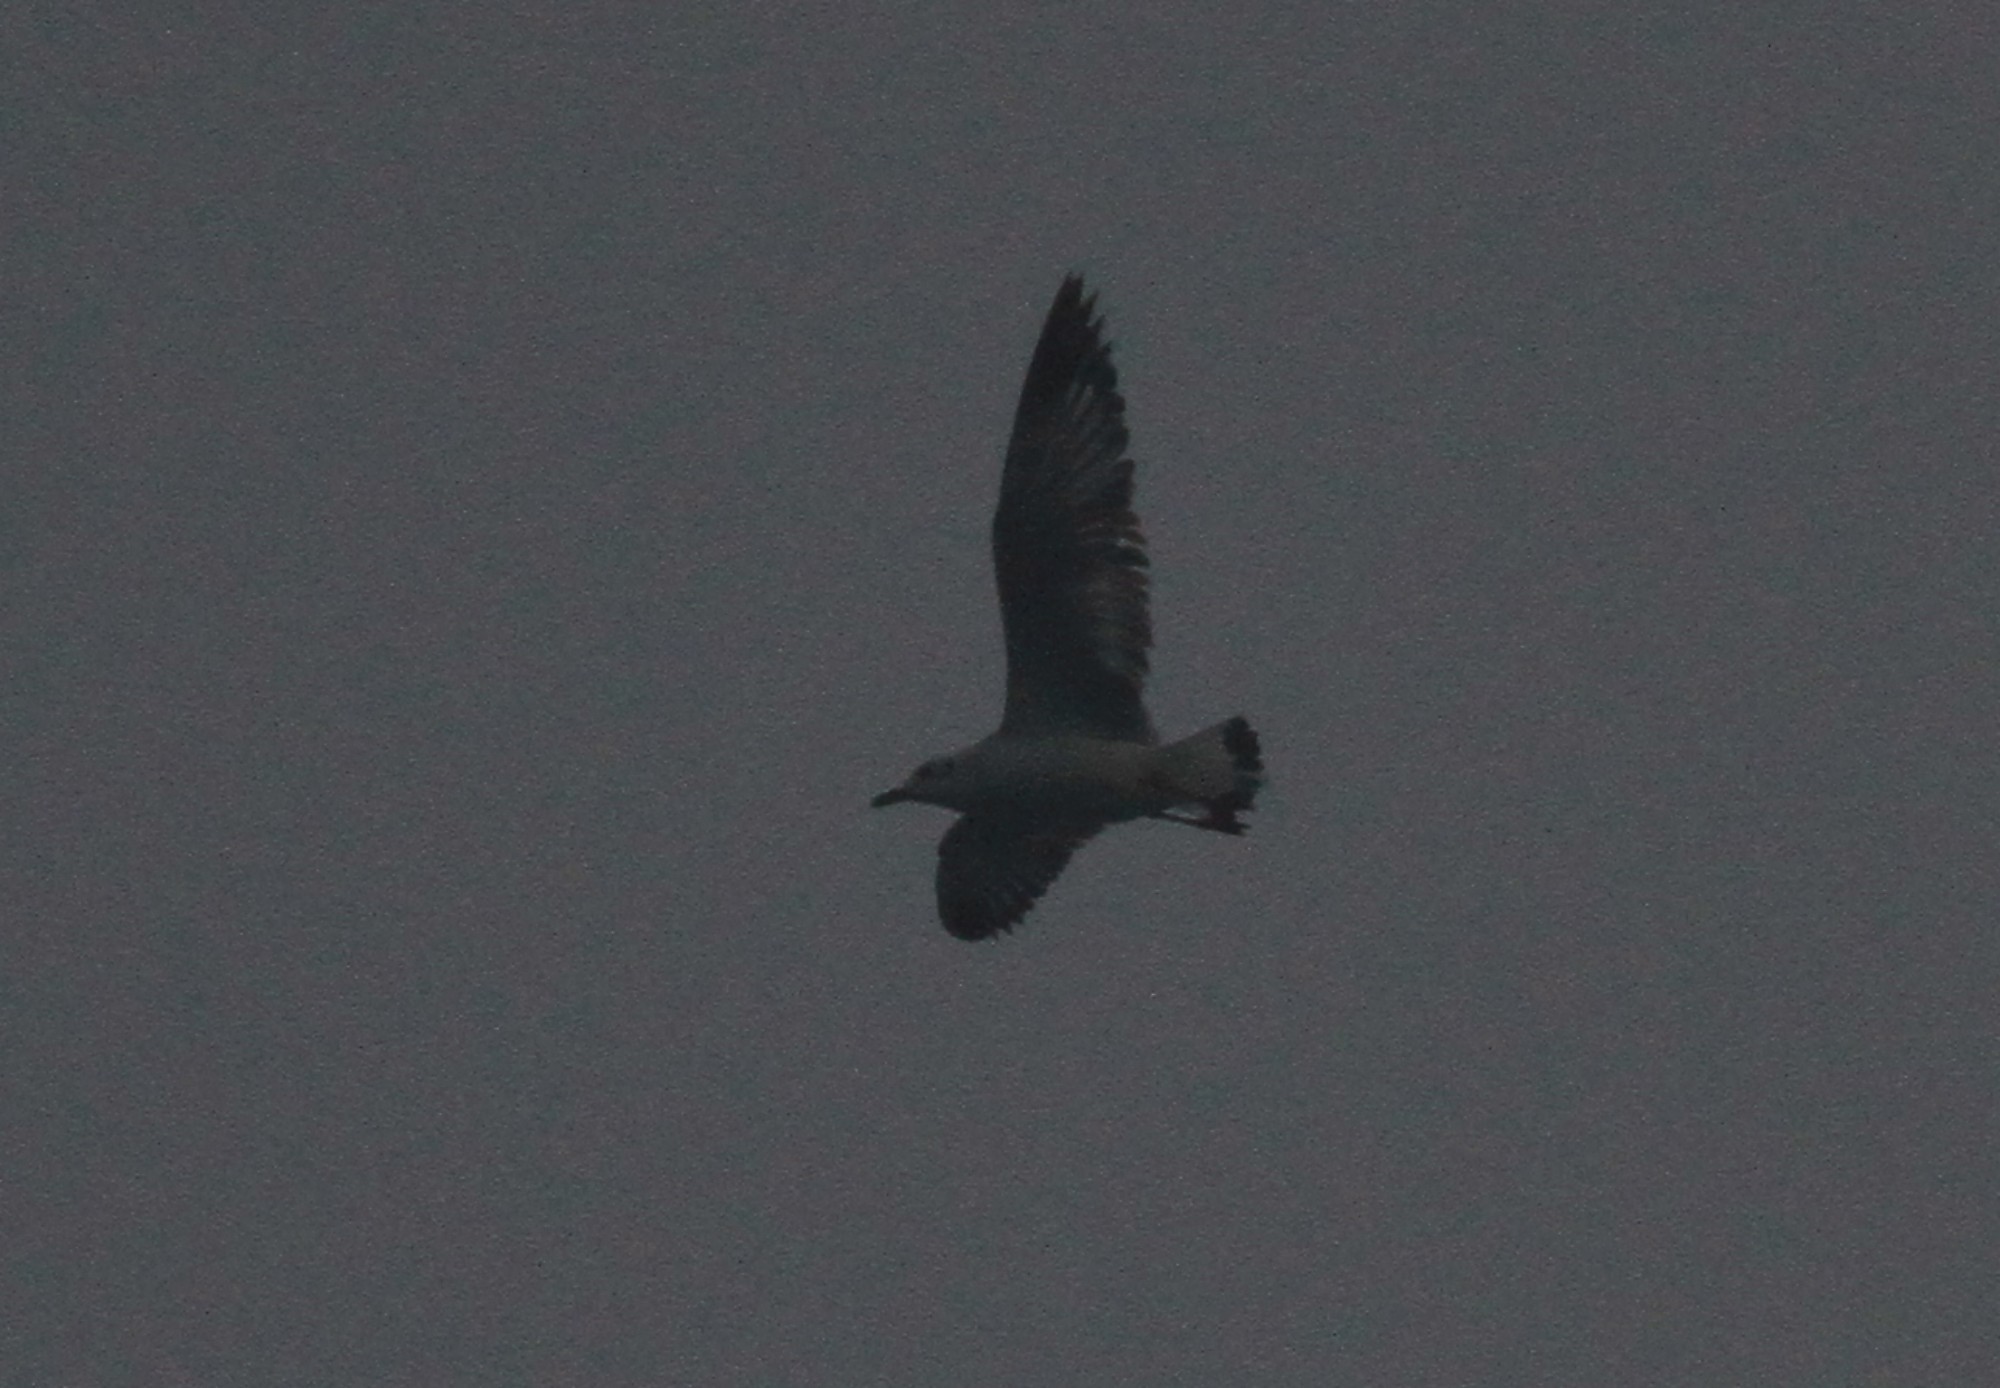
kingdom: Animalia
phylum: Chordata
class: Aves
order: Charadriiformes
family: Laridae
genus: Chroicocephalus
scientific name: Chroicocephalus brunnicephalus
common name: Brown-headed gull
